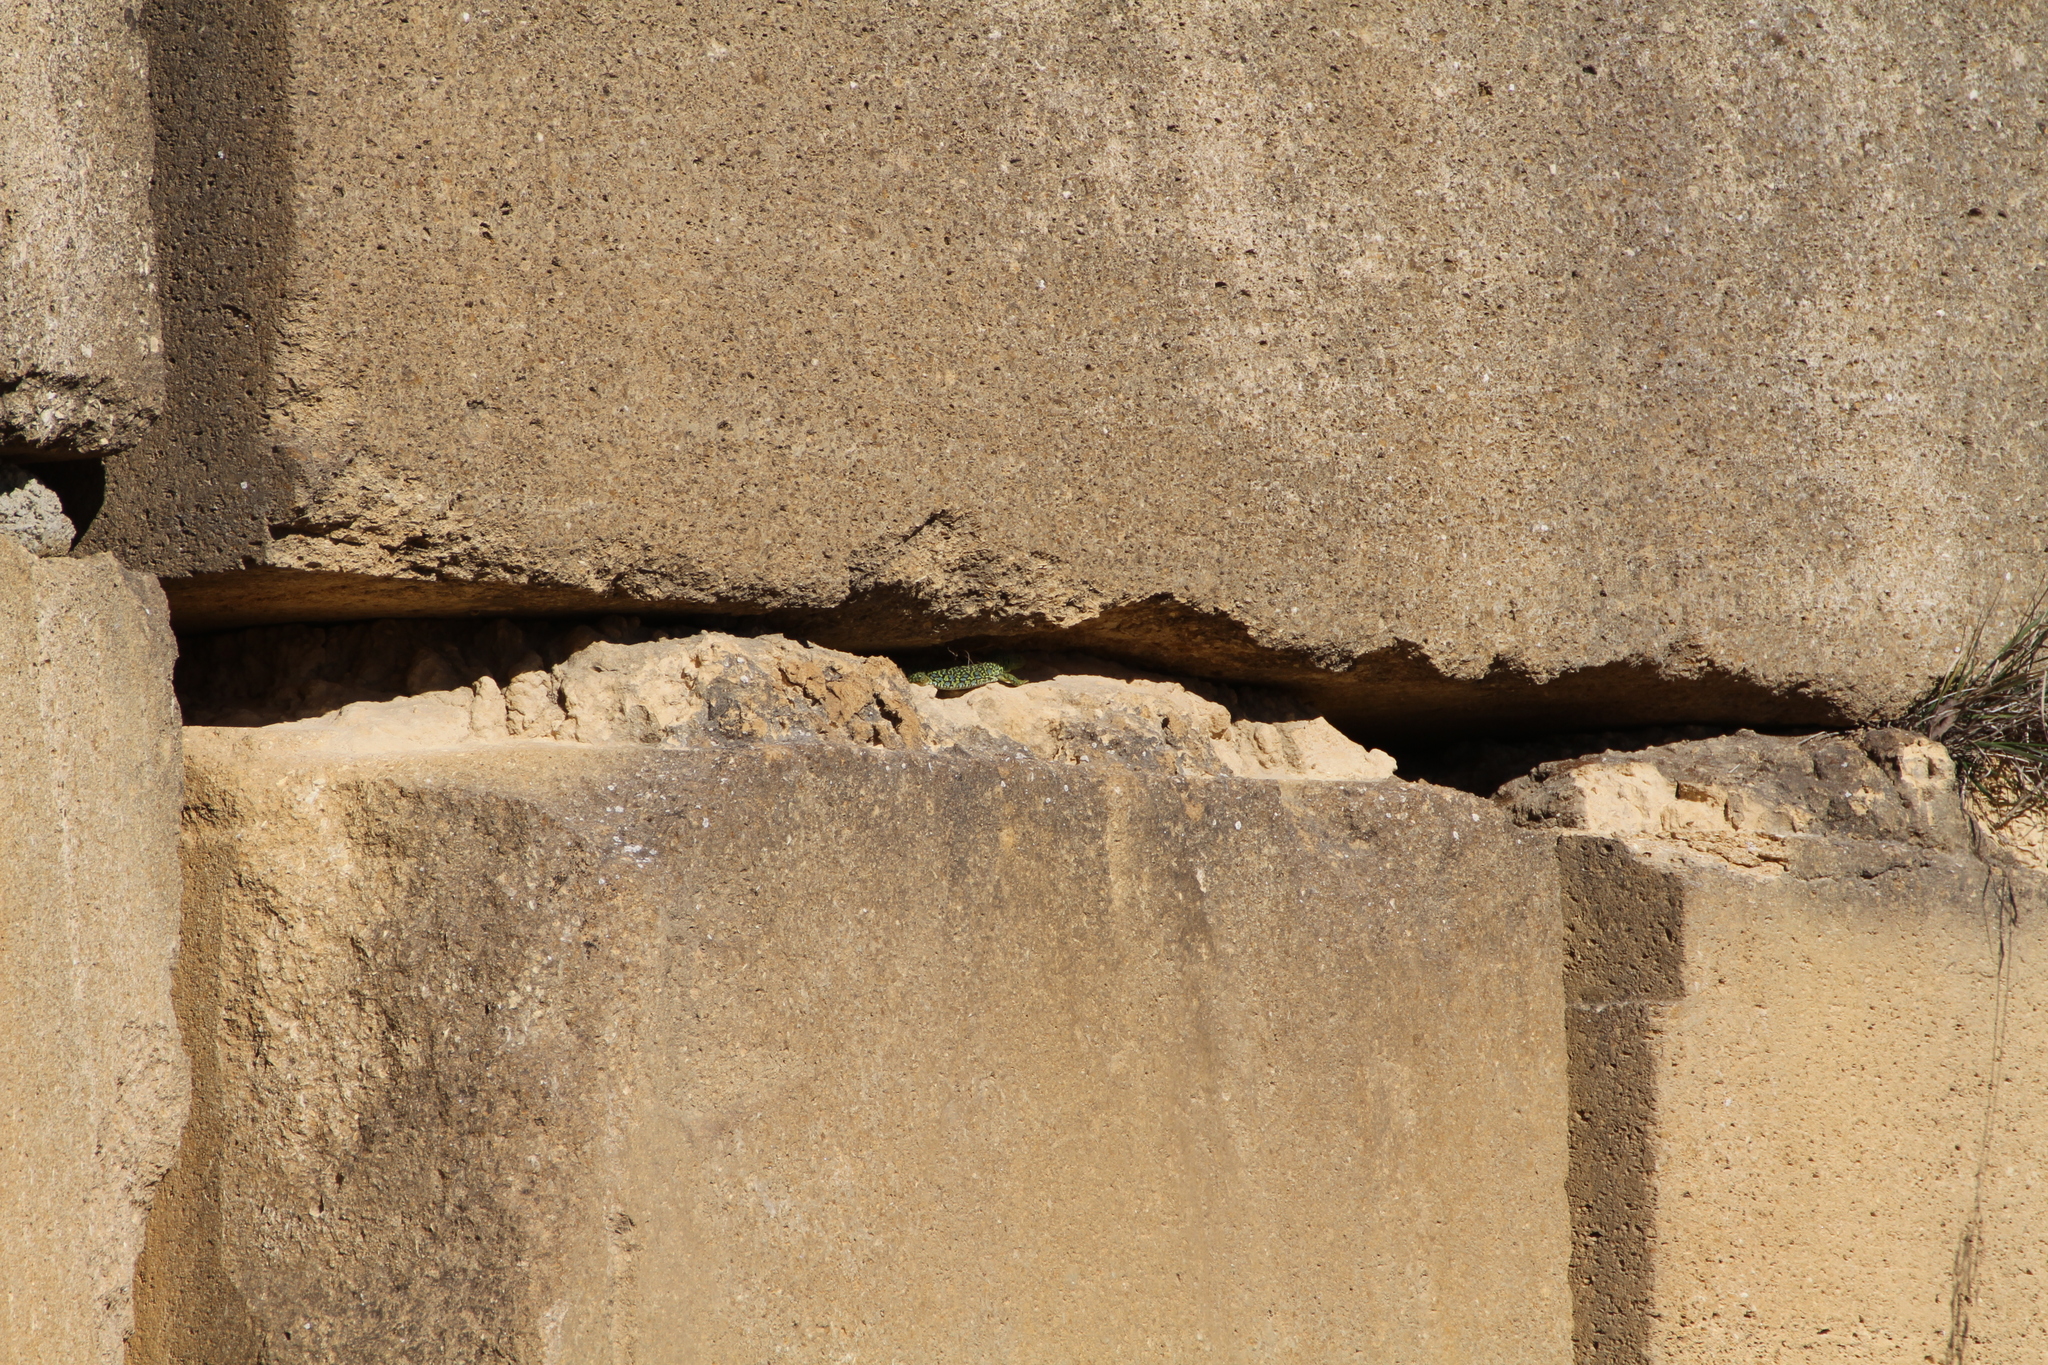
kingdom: Animalia
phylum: Chordata
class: Squamata
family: Lacertidae
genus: Timon
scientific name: Timon lepidus
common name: Ocellated lizard
